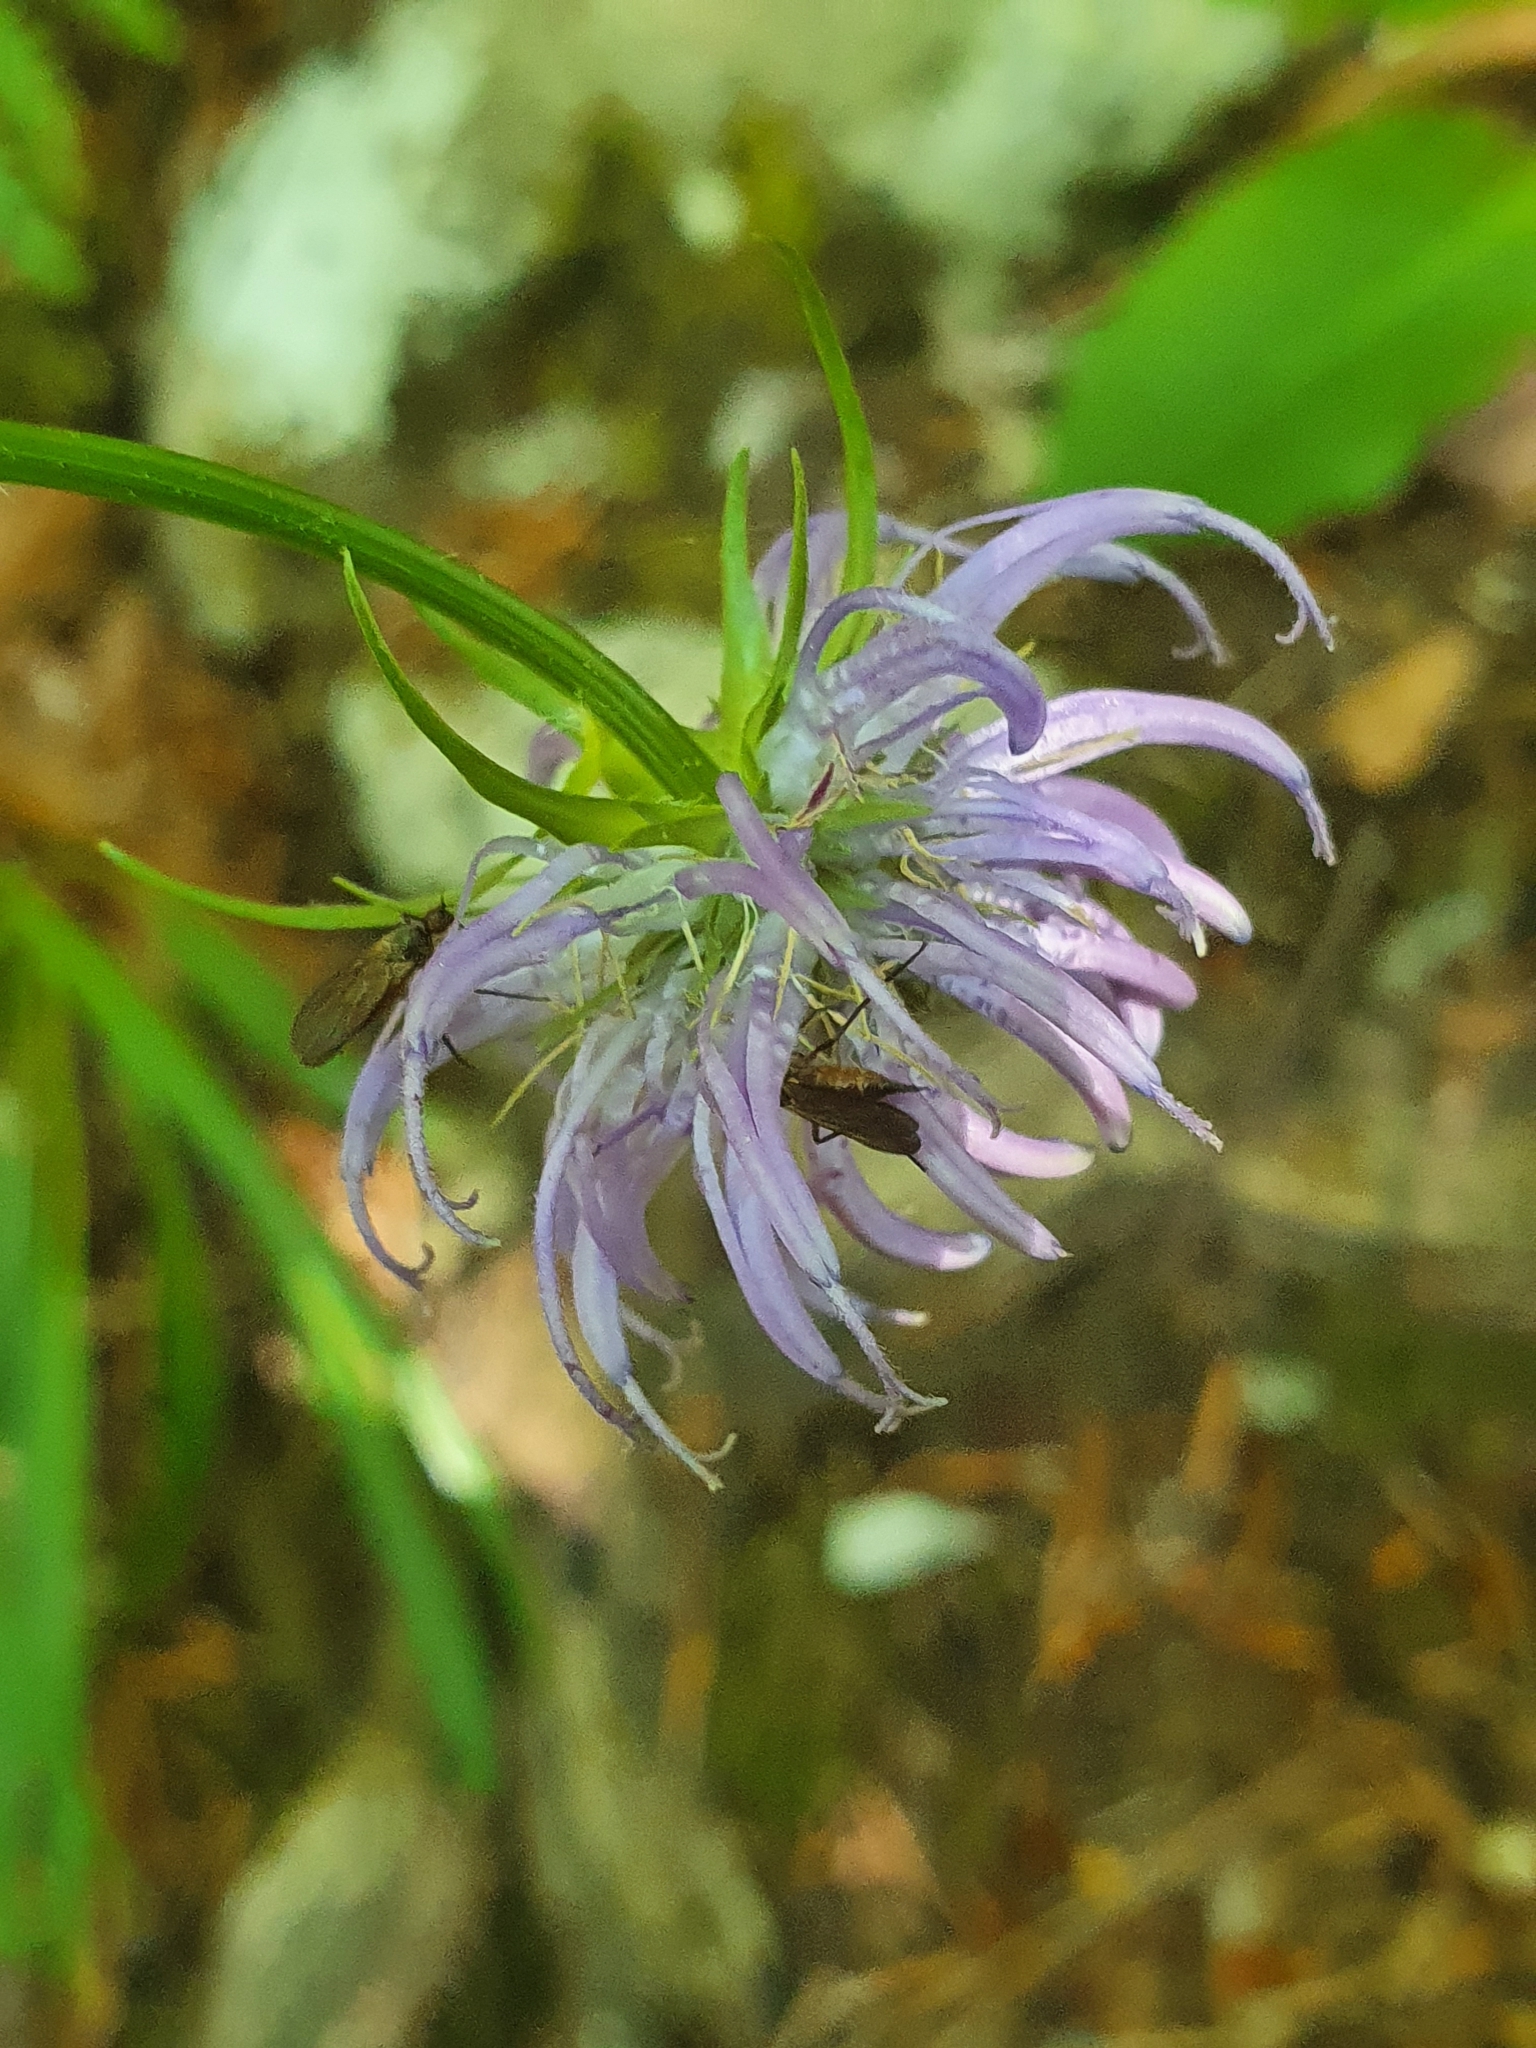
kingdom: Plantae
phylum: Tracheophyta
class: Magnoliopsida
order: Asterales
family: Campanulaceae
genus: Phyteuma
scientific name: Phyteuma orbiculare
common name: Round-headed rampion
